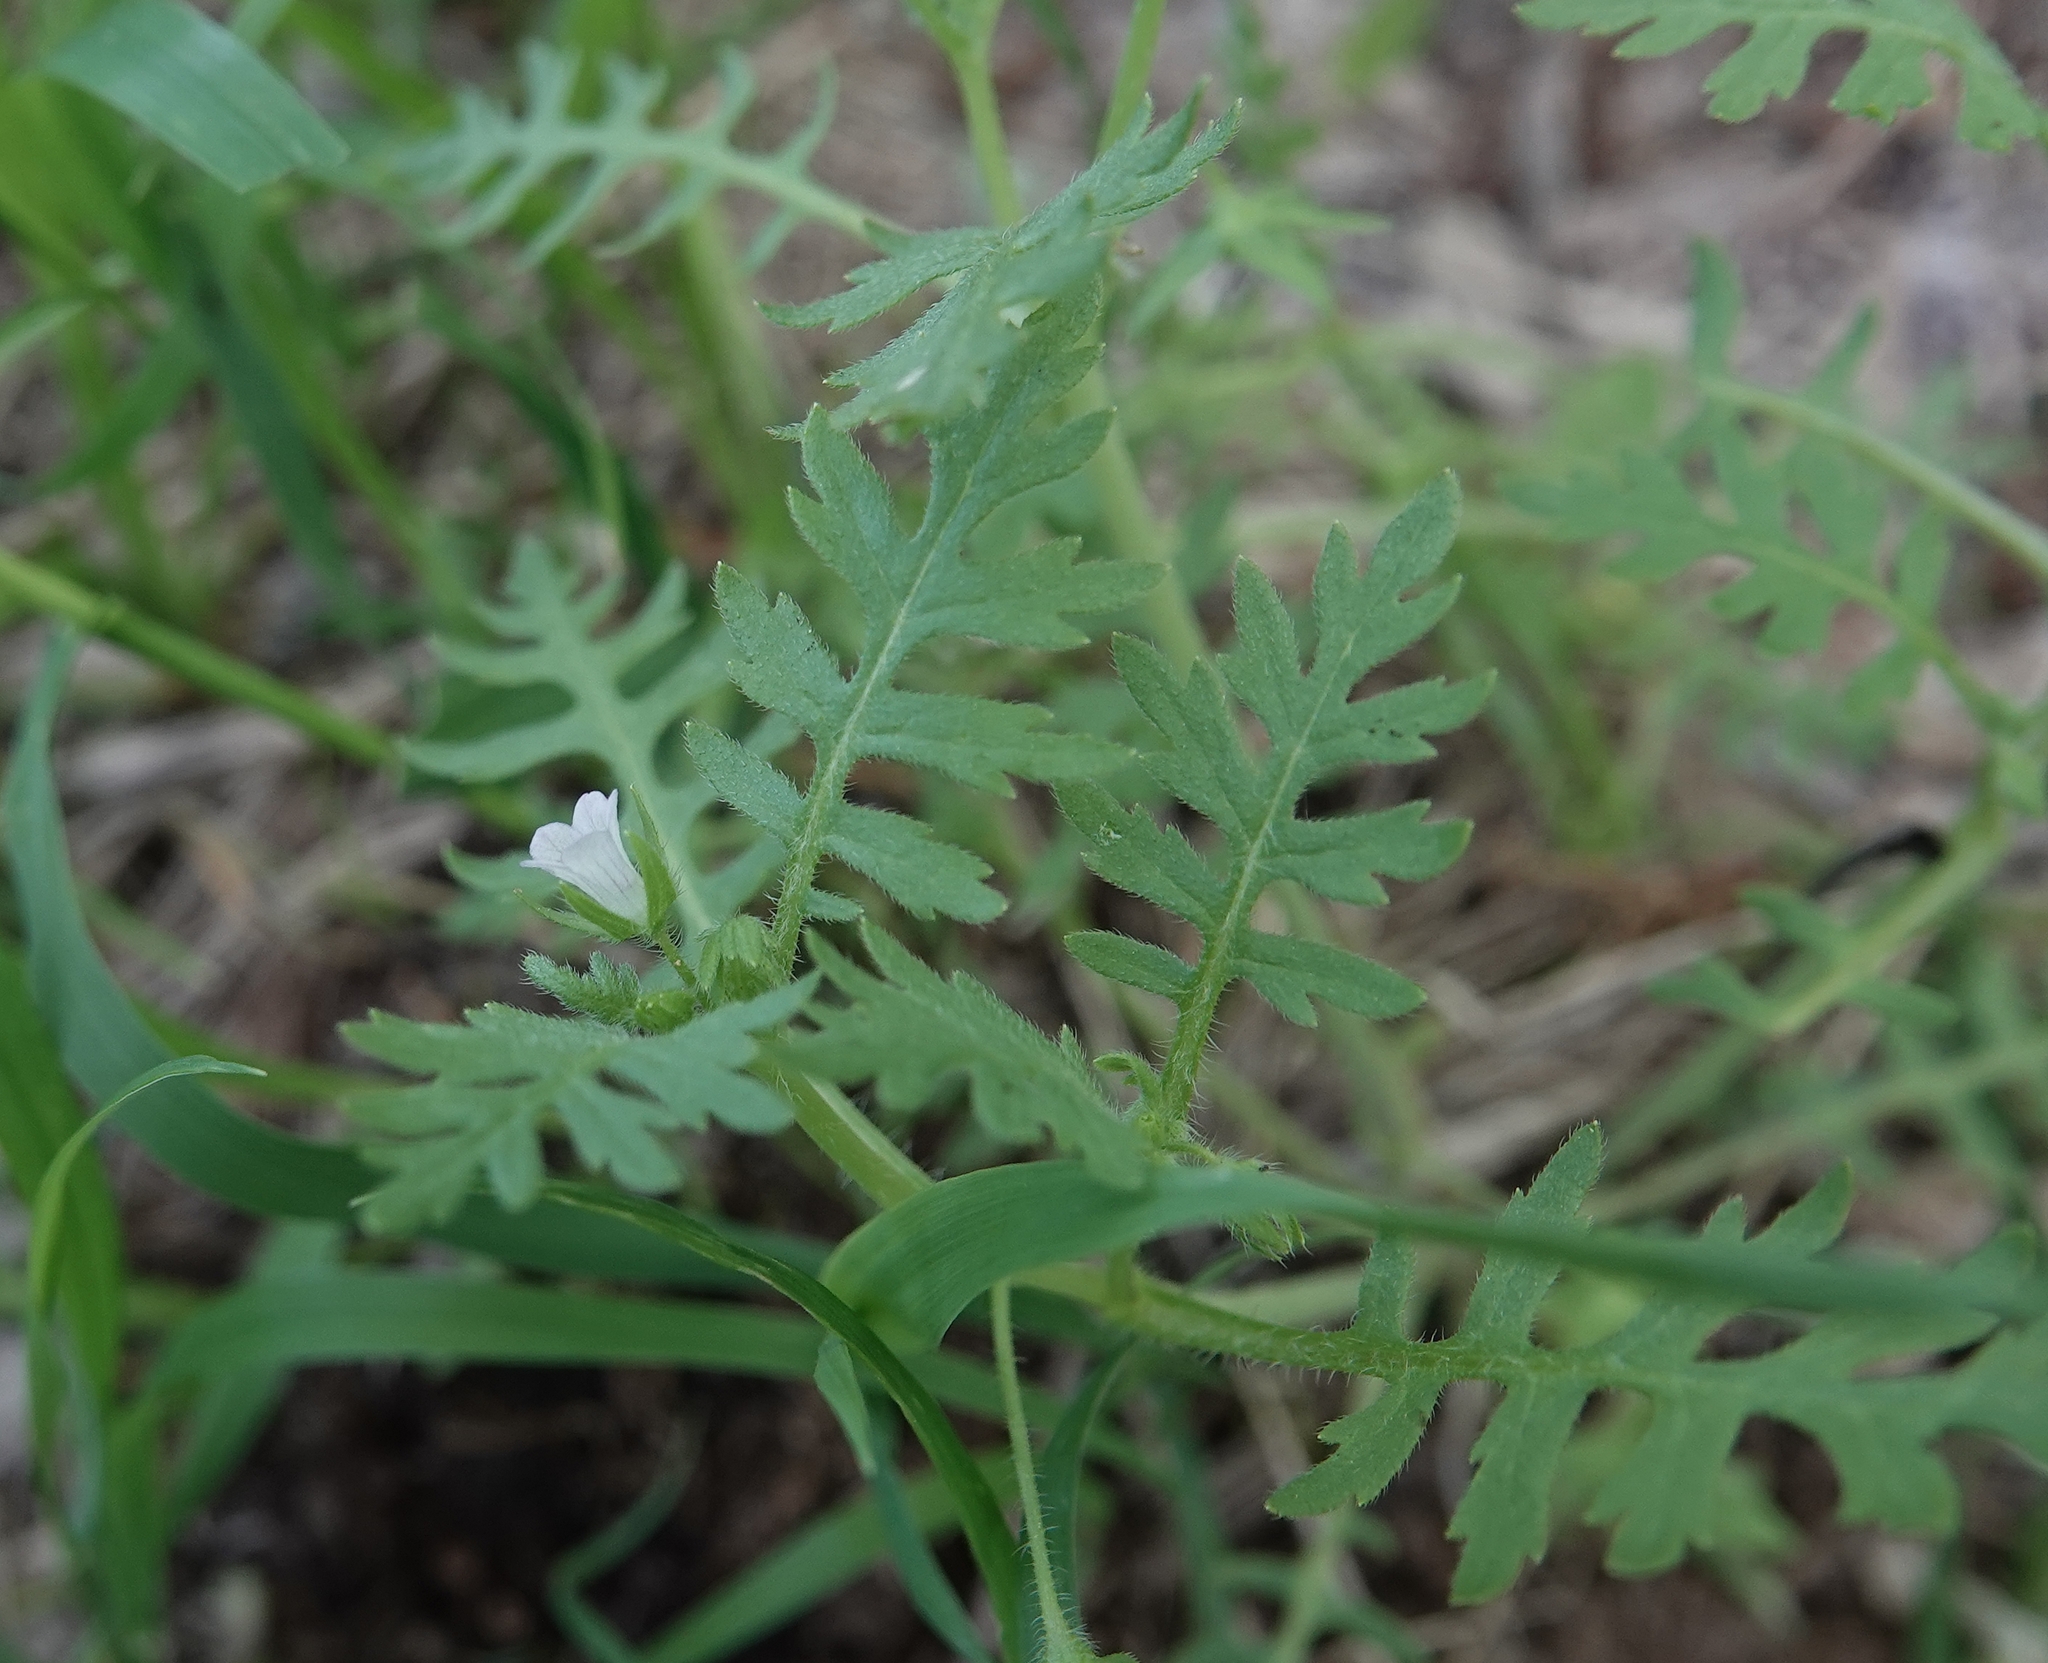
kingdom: Plantae
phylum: Tracheophyta
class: Magnoliopsida
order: Boraginales
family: Hydrophyllaceae
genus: Ellisia
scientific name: Ellisia nyctelea
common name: Aunt lucy
